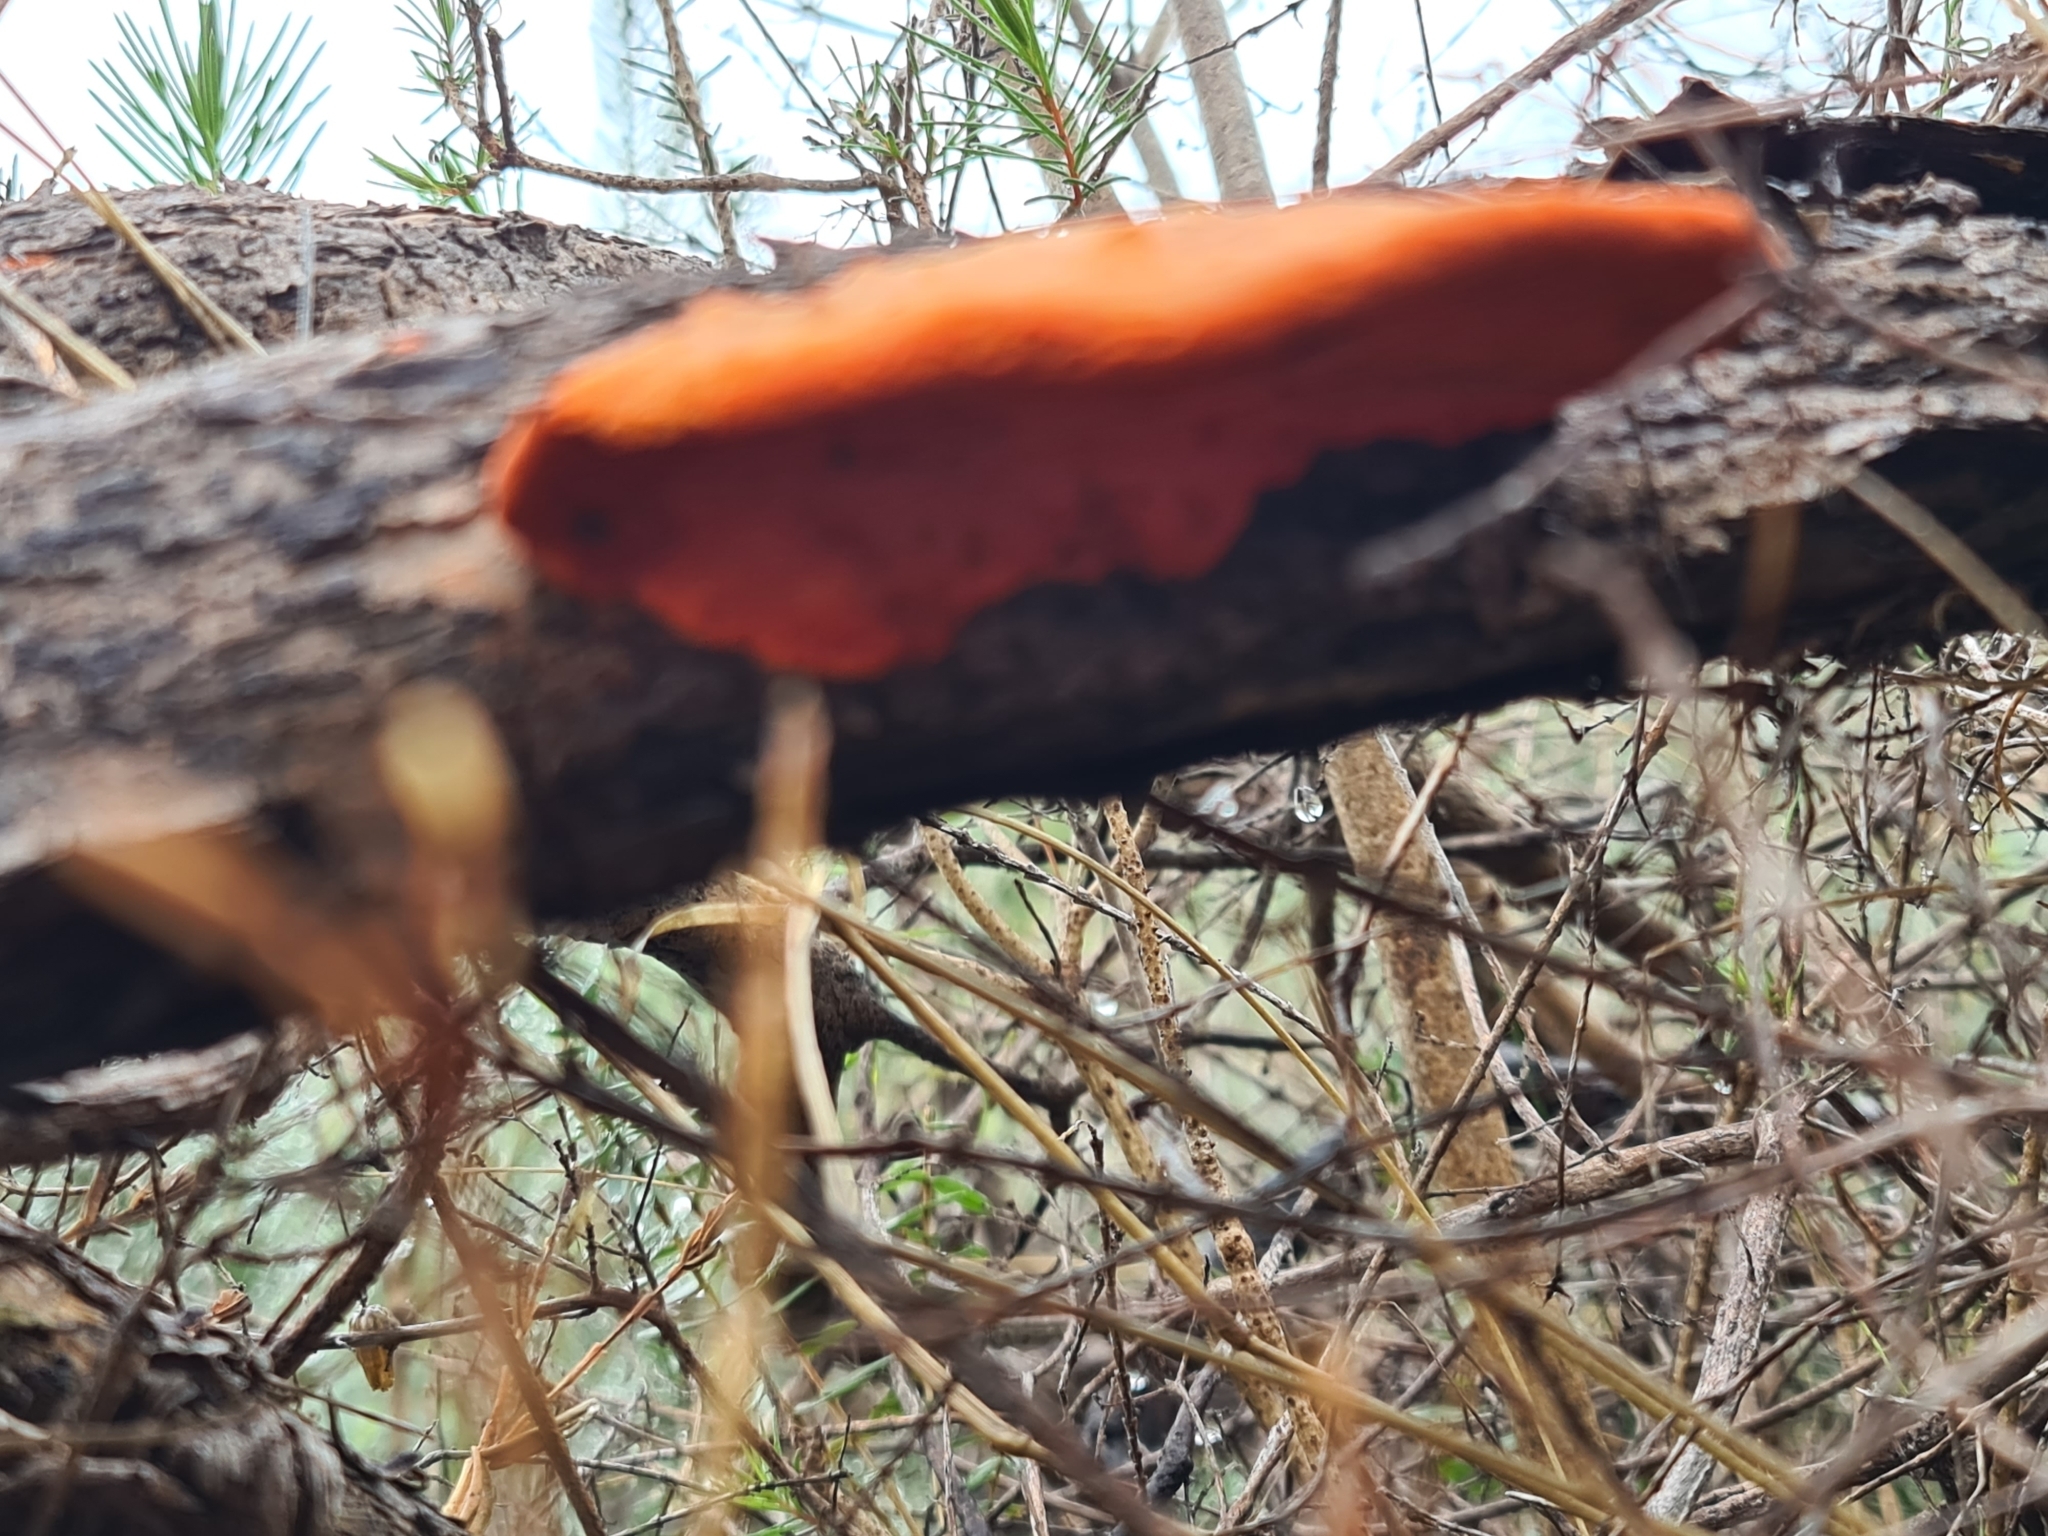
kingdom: Fungi
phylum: Basidiomycota
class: Agaricomycetes
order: Polyporales
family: Polyporaceae
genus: Trametes
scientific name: Trametes coccinea
